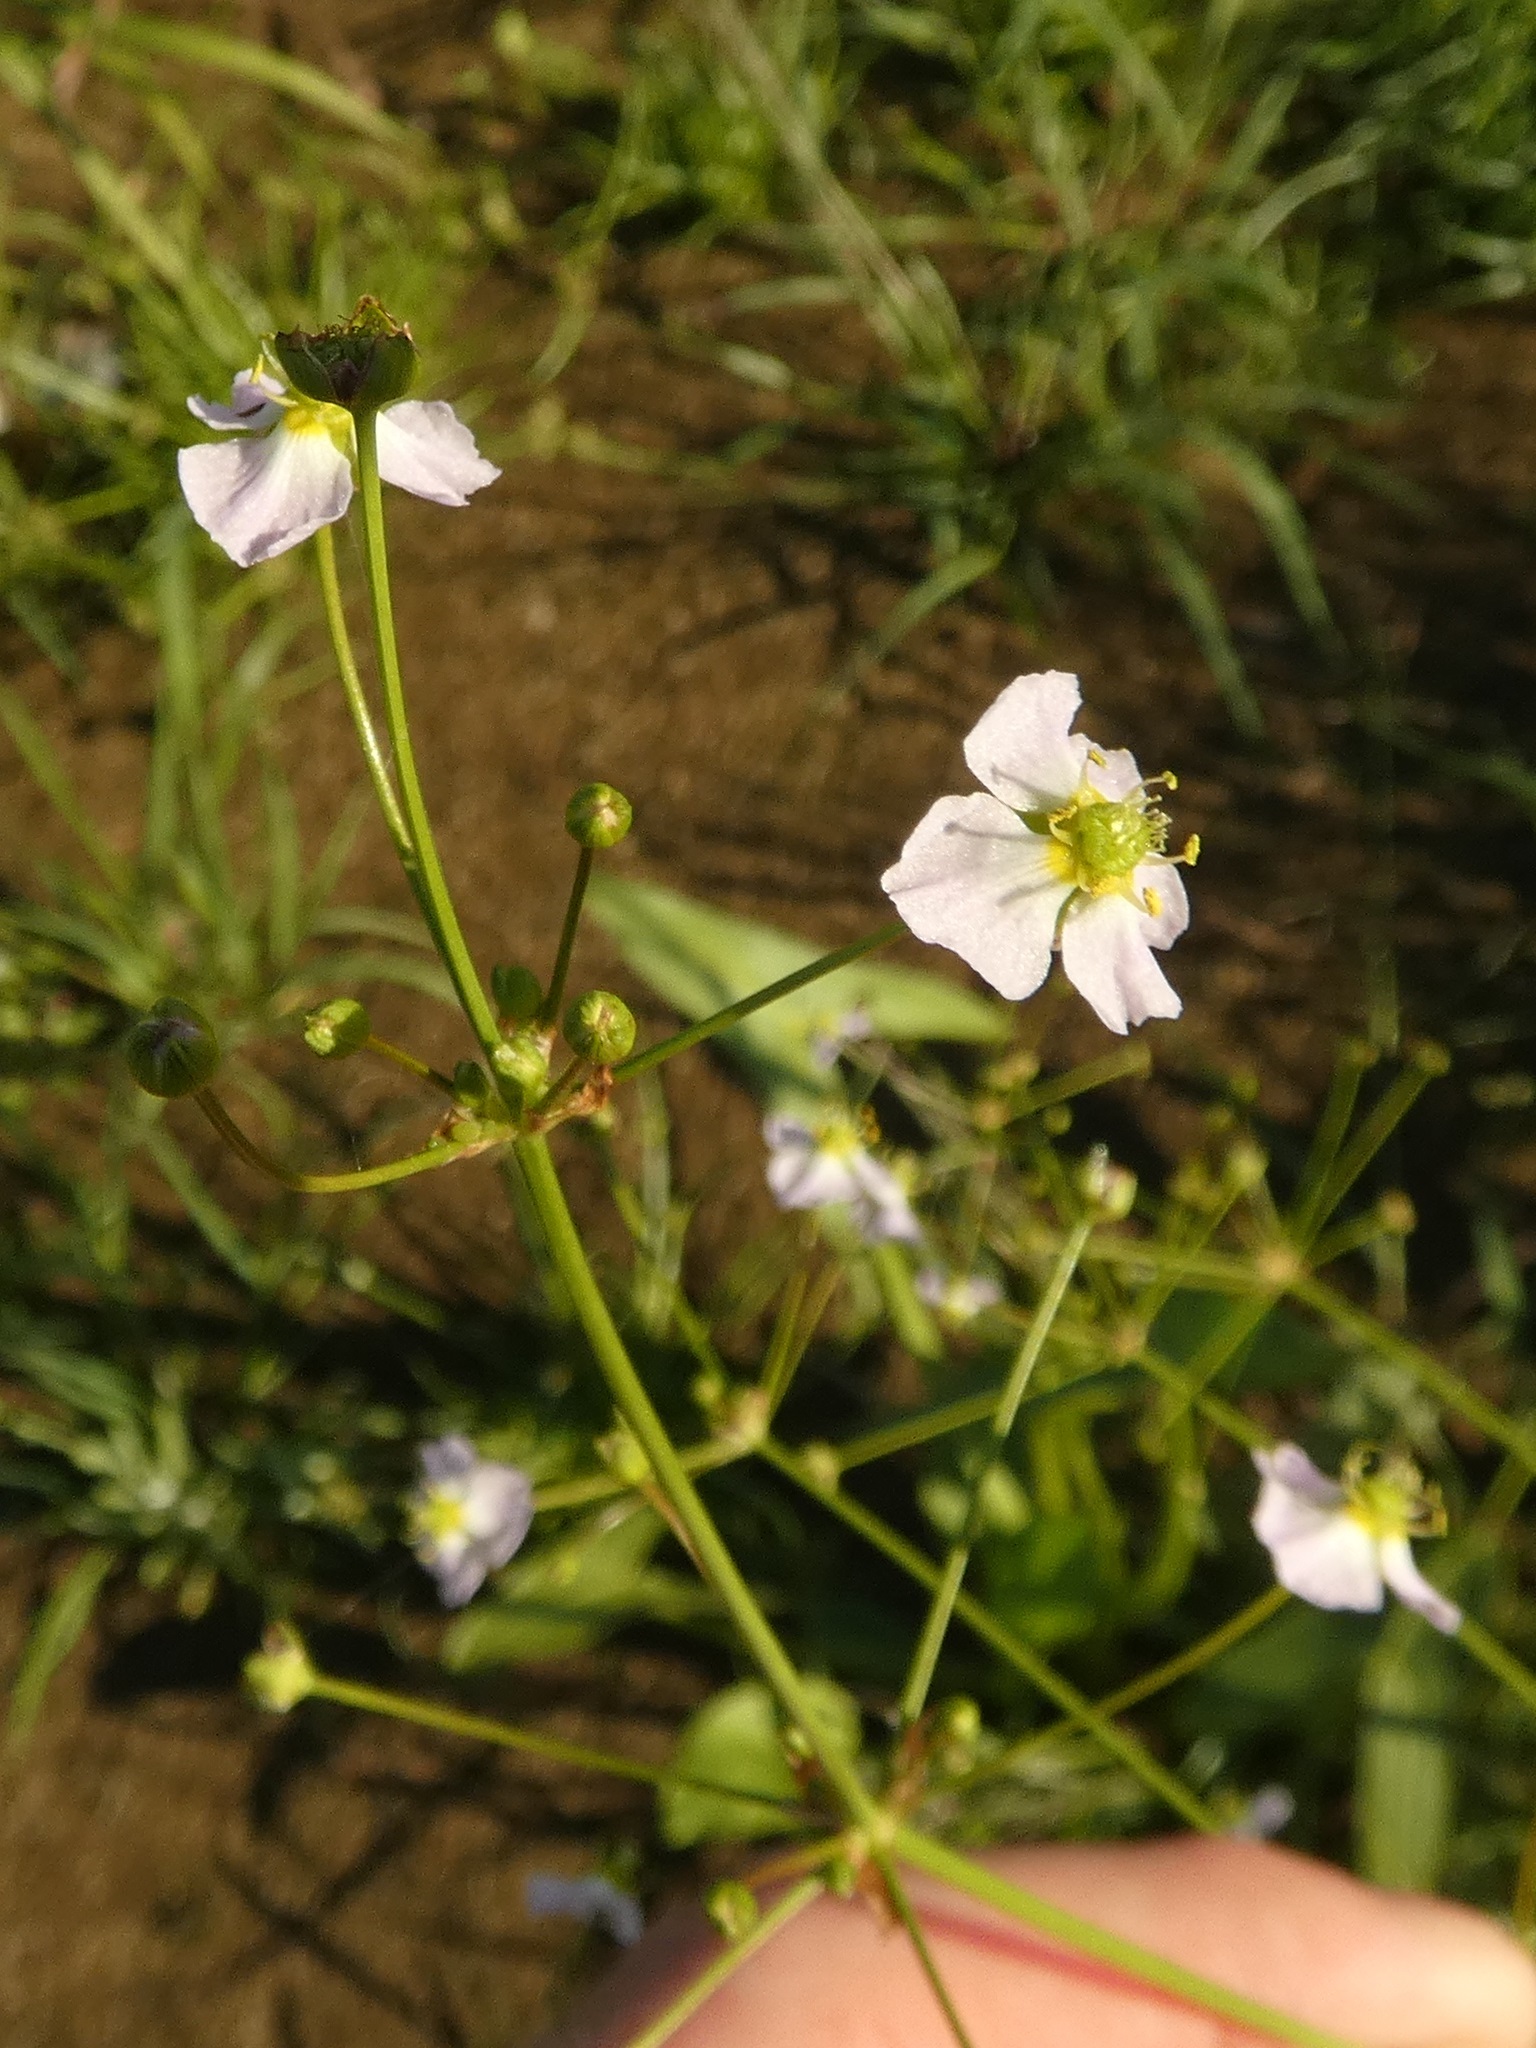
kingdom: Plantae
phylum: Tracheophyta
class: Liliopsida
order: Alismatales
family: Alismataceae
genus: Alisma
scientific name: Alisma plantago-aquatica
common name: Water-plantain
